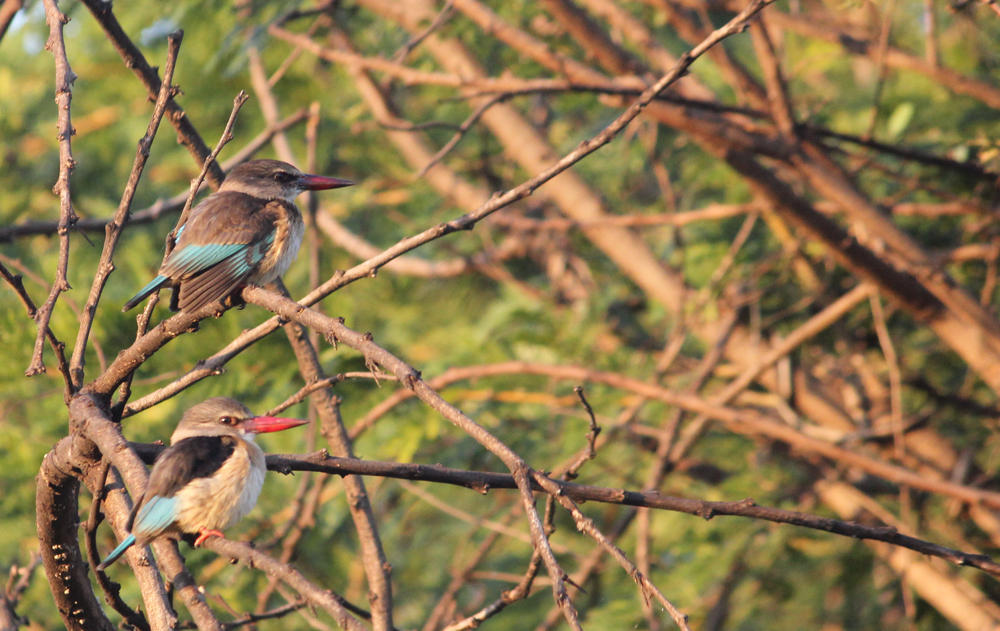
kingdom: Animalia
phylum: Chordata
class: Aves
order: Coraciiformes
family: Alcedinidae
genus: Halcyon
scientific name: Halcyon albiventris
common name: Brown-hooded kingfisher
